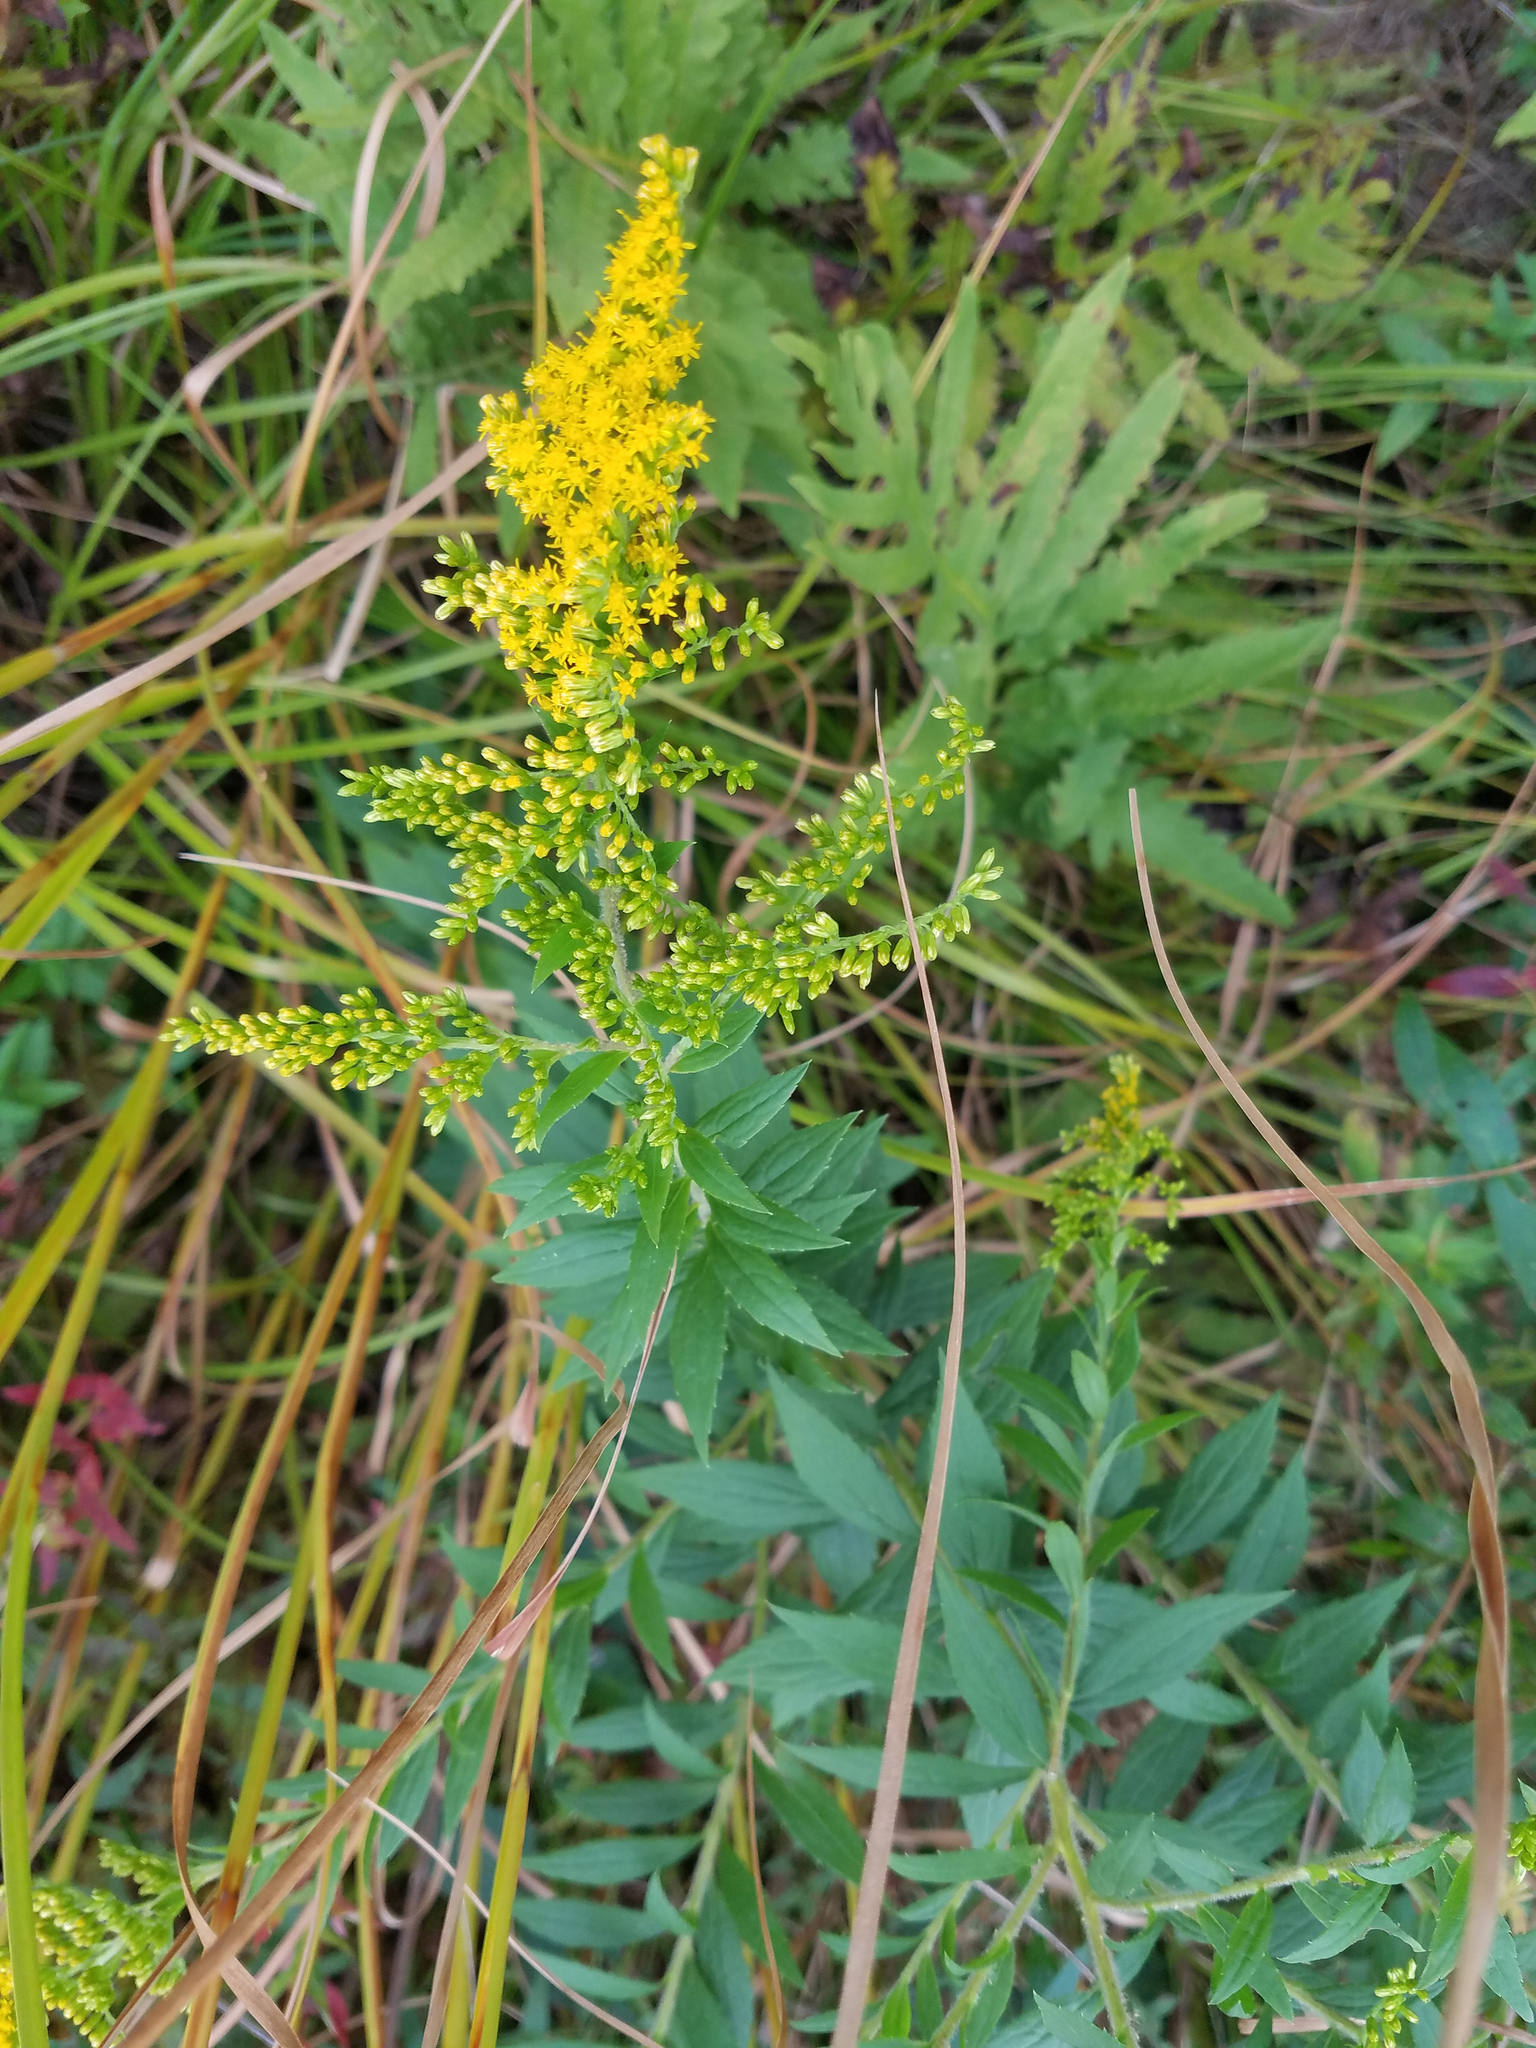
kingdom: Plantae
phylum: Tracheophyta
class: Magnoliopsida
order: Asterales
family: Asteraceae
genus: Solidago
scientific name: Solidago rugosa
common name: Rough-stemmed goldenrod
